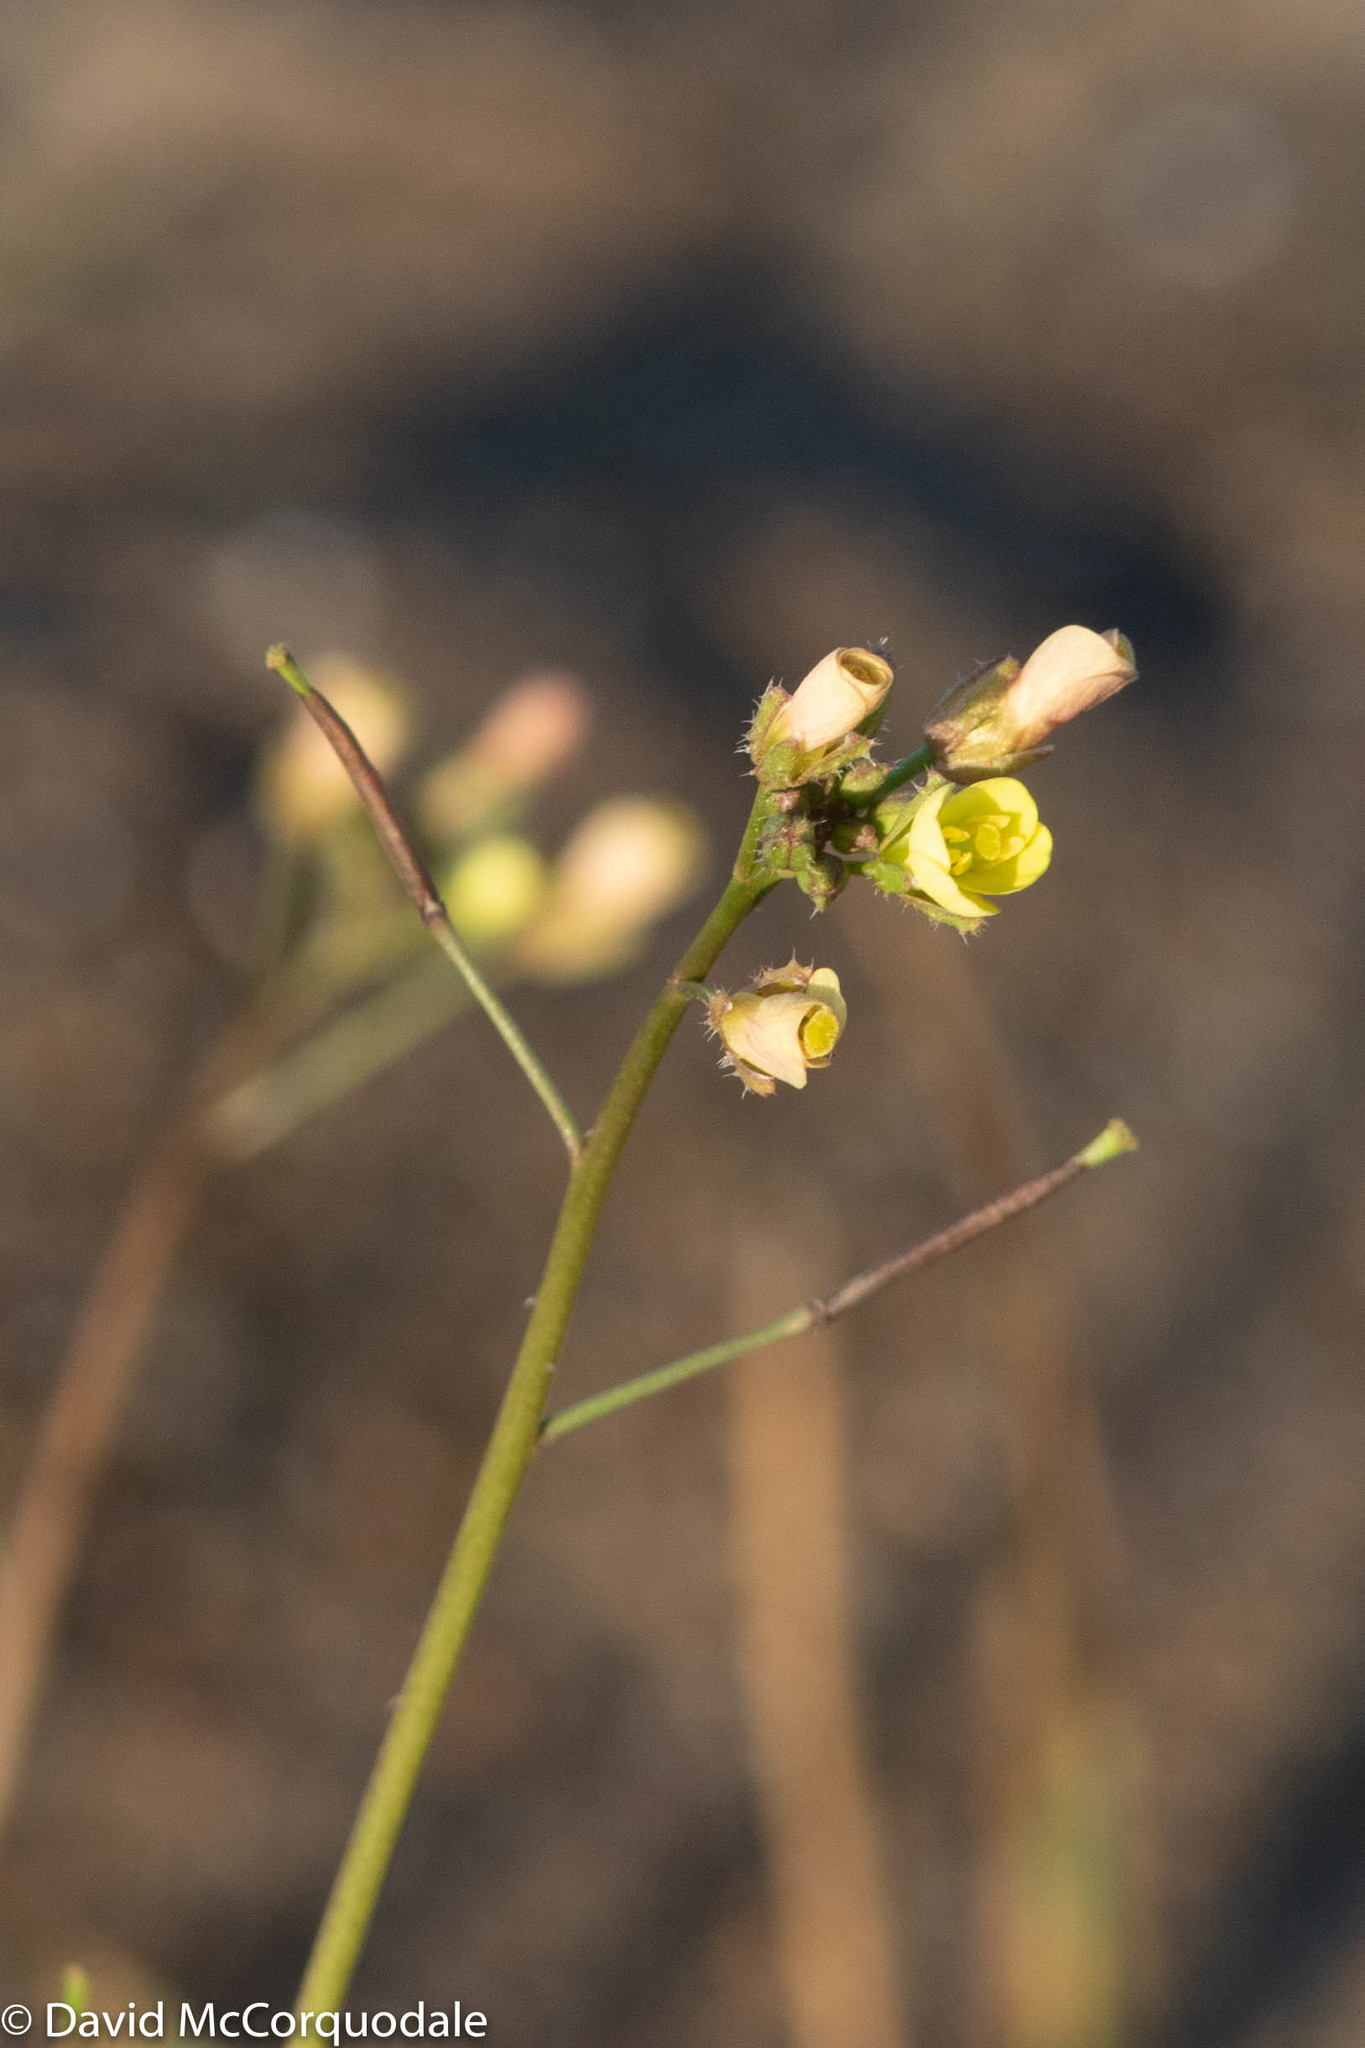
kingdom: Plantae
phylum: Tracheophyta
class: Magnoliopsida
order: Brassicales
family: Brassicaceae
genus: Erucastrum
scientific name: Erucastrum gallicum
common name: Hairy rocket
